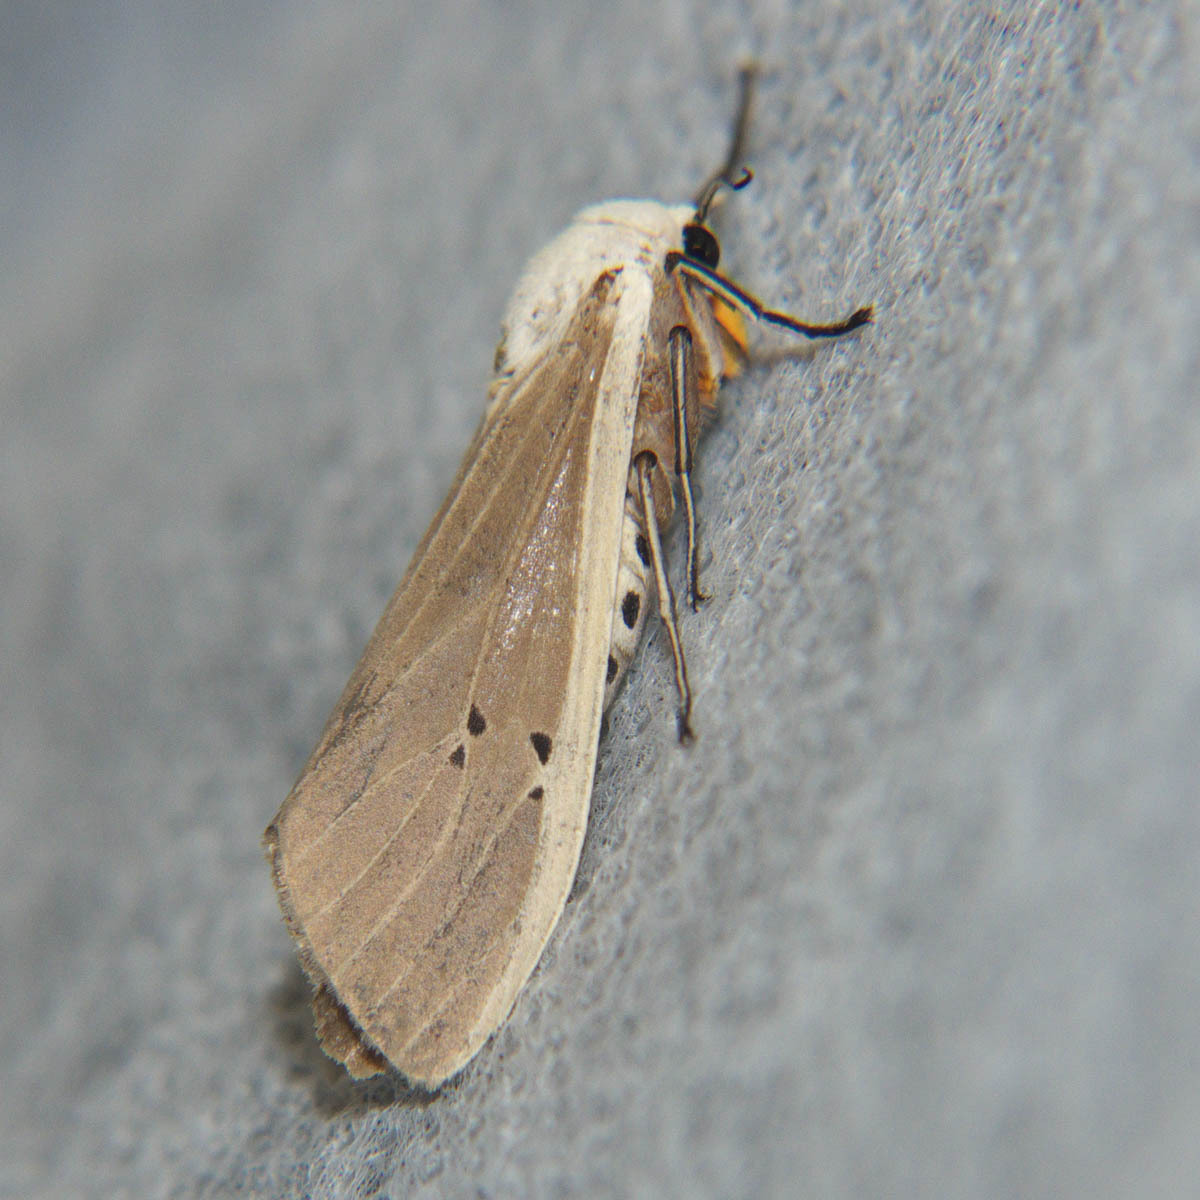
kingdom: Animalia
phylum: Arthropoda
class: Insecta
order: Lepidoptera
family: Erebidae
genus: Creatonotos
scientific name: Creatonotos transiens
